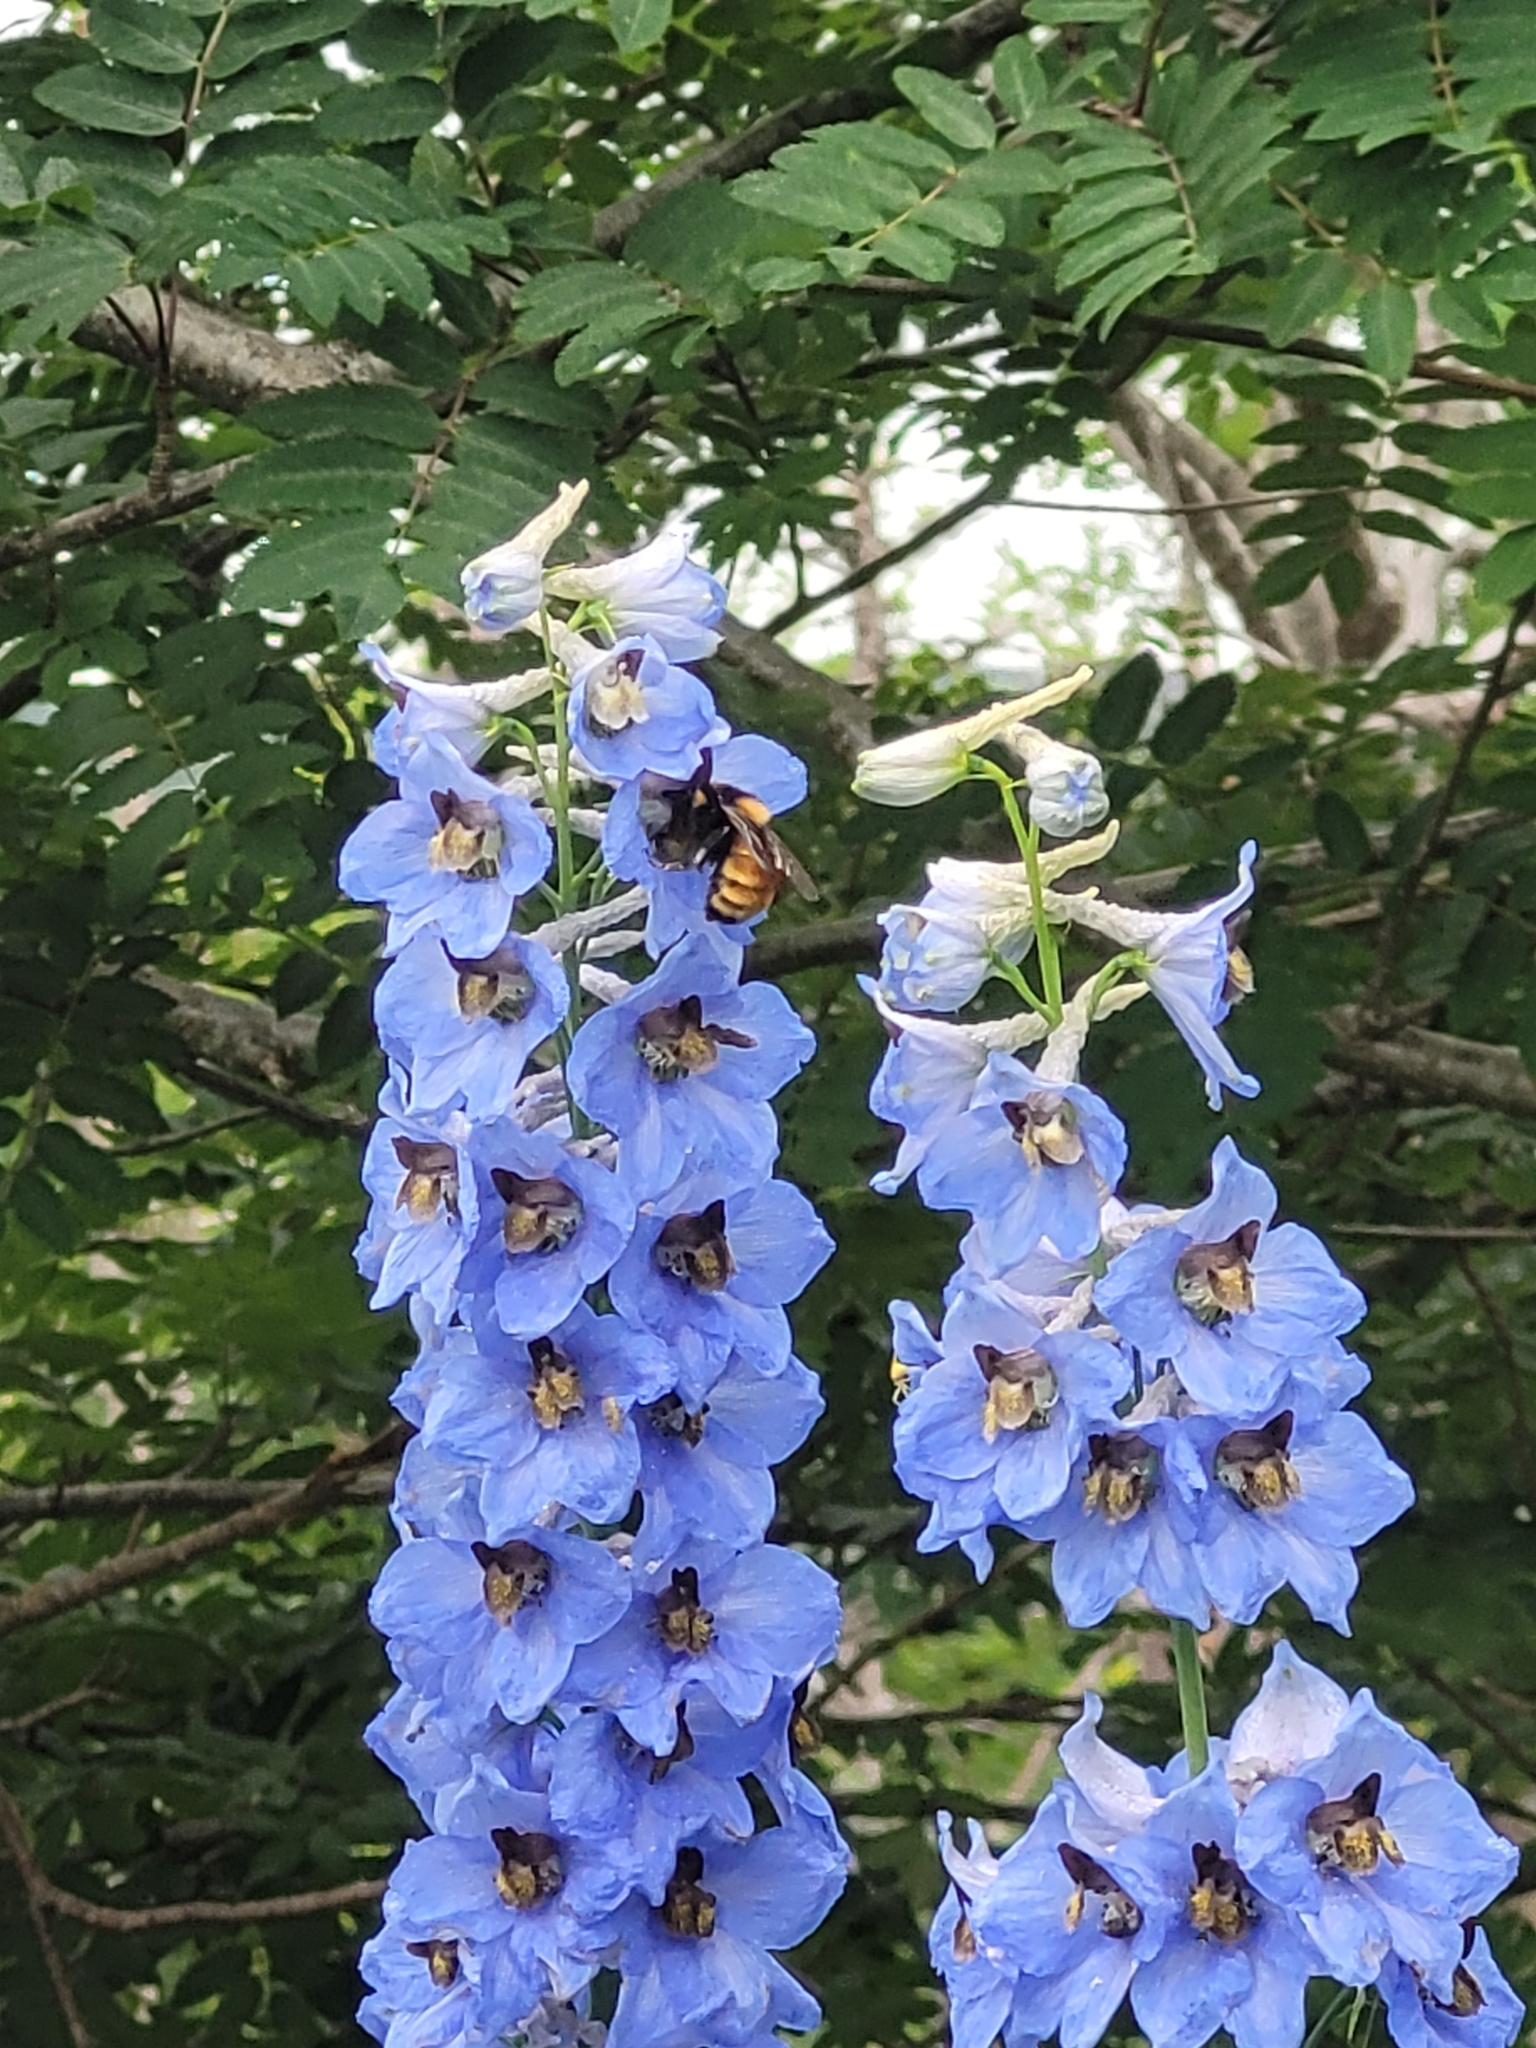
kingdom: Animalia
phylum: Arthropoda
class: Insecta
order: Hymenoptera
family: Apidae
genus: Bombus
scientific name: Bombus borealis
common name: Northern amber bumble bee
